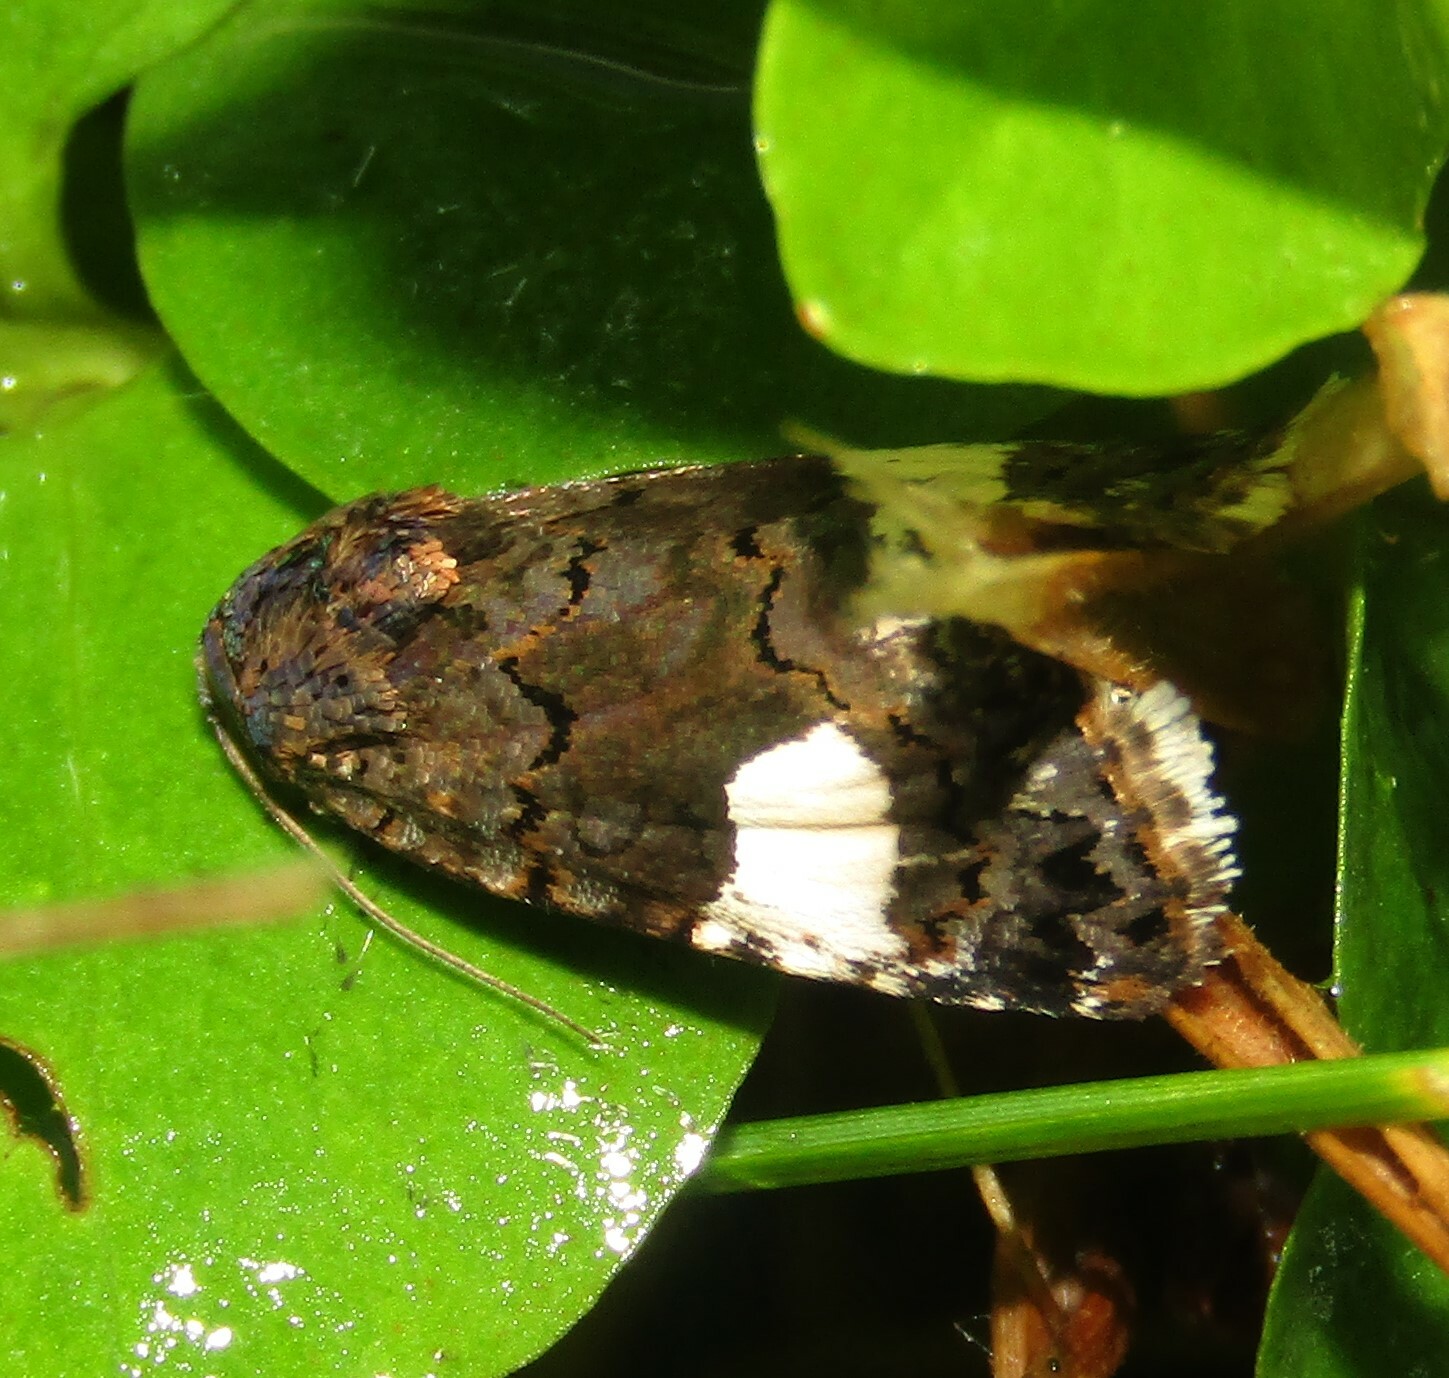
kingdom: Animalia
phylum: Arthropoda
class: Insecta
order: Lepidoptera
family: Erebidae
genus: Tyta
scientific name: Tyta luctuosa
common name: Four-spotted
